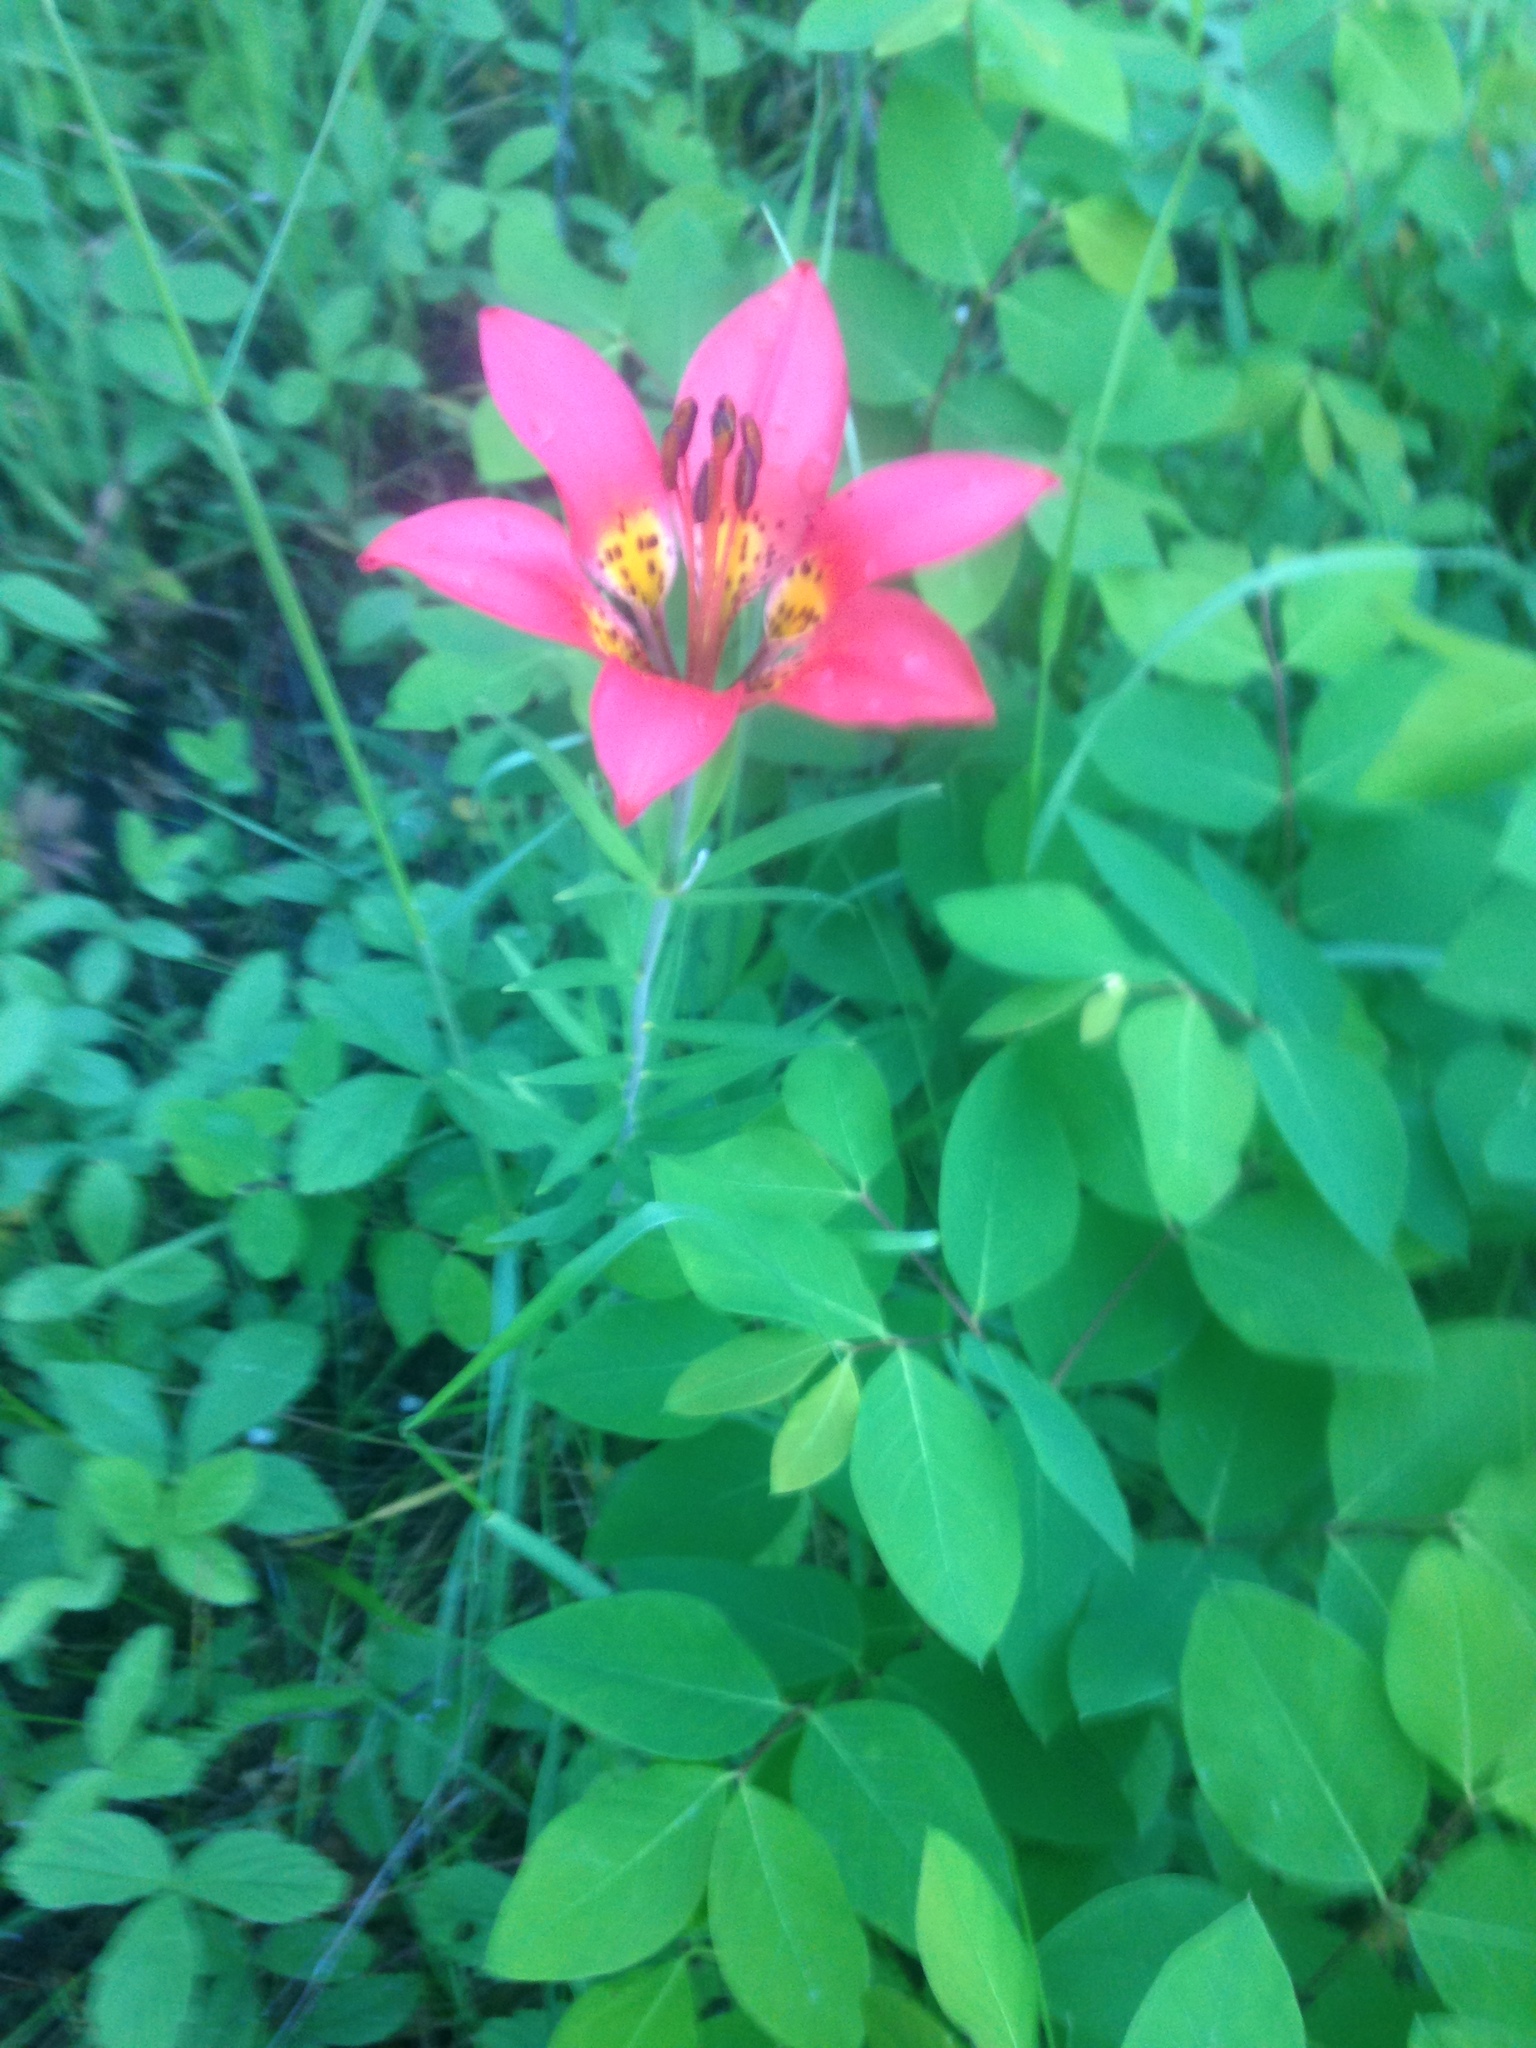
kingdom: Plantae
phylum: Tracheophyta
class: Liliopsida
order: Liliales
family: Liliaceae
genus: Lilium
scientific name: Lilium philadelphicum
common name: Red lily
